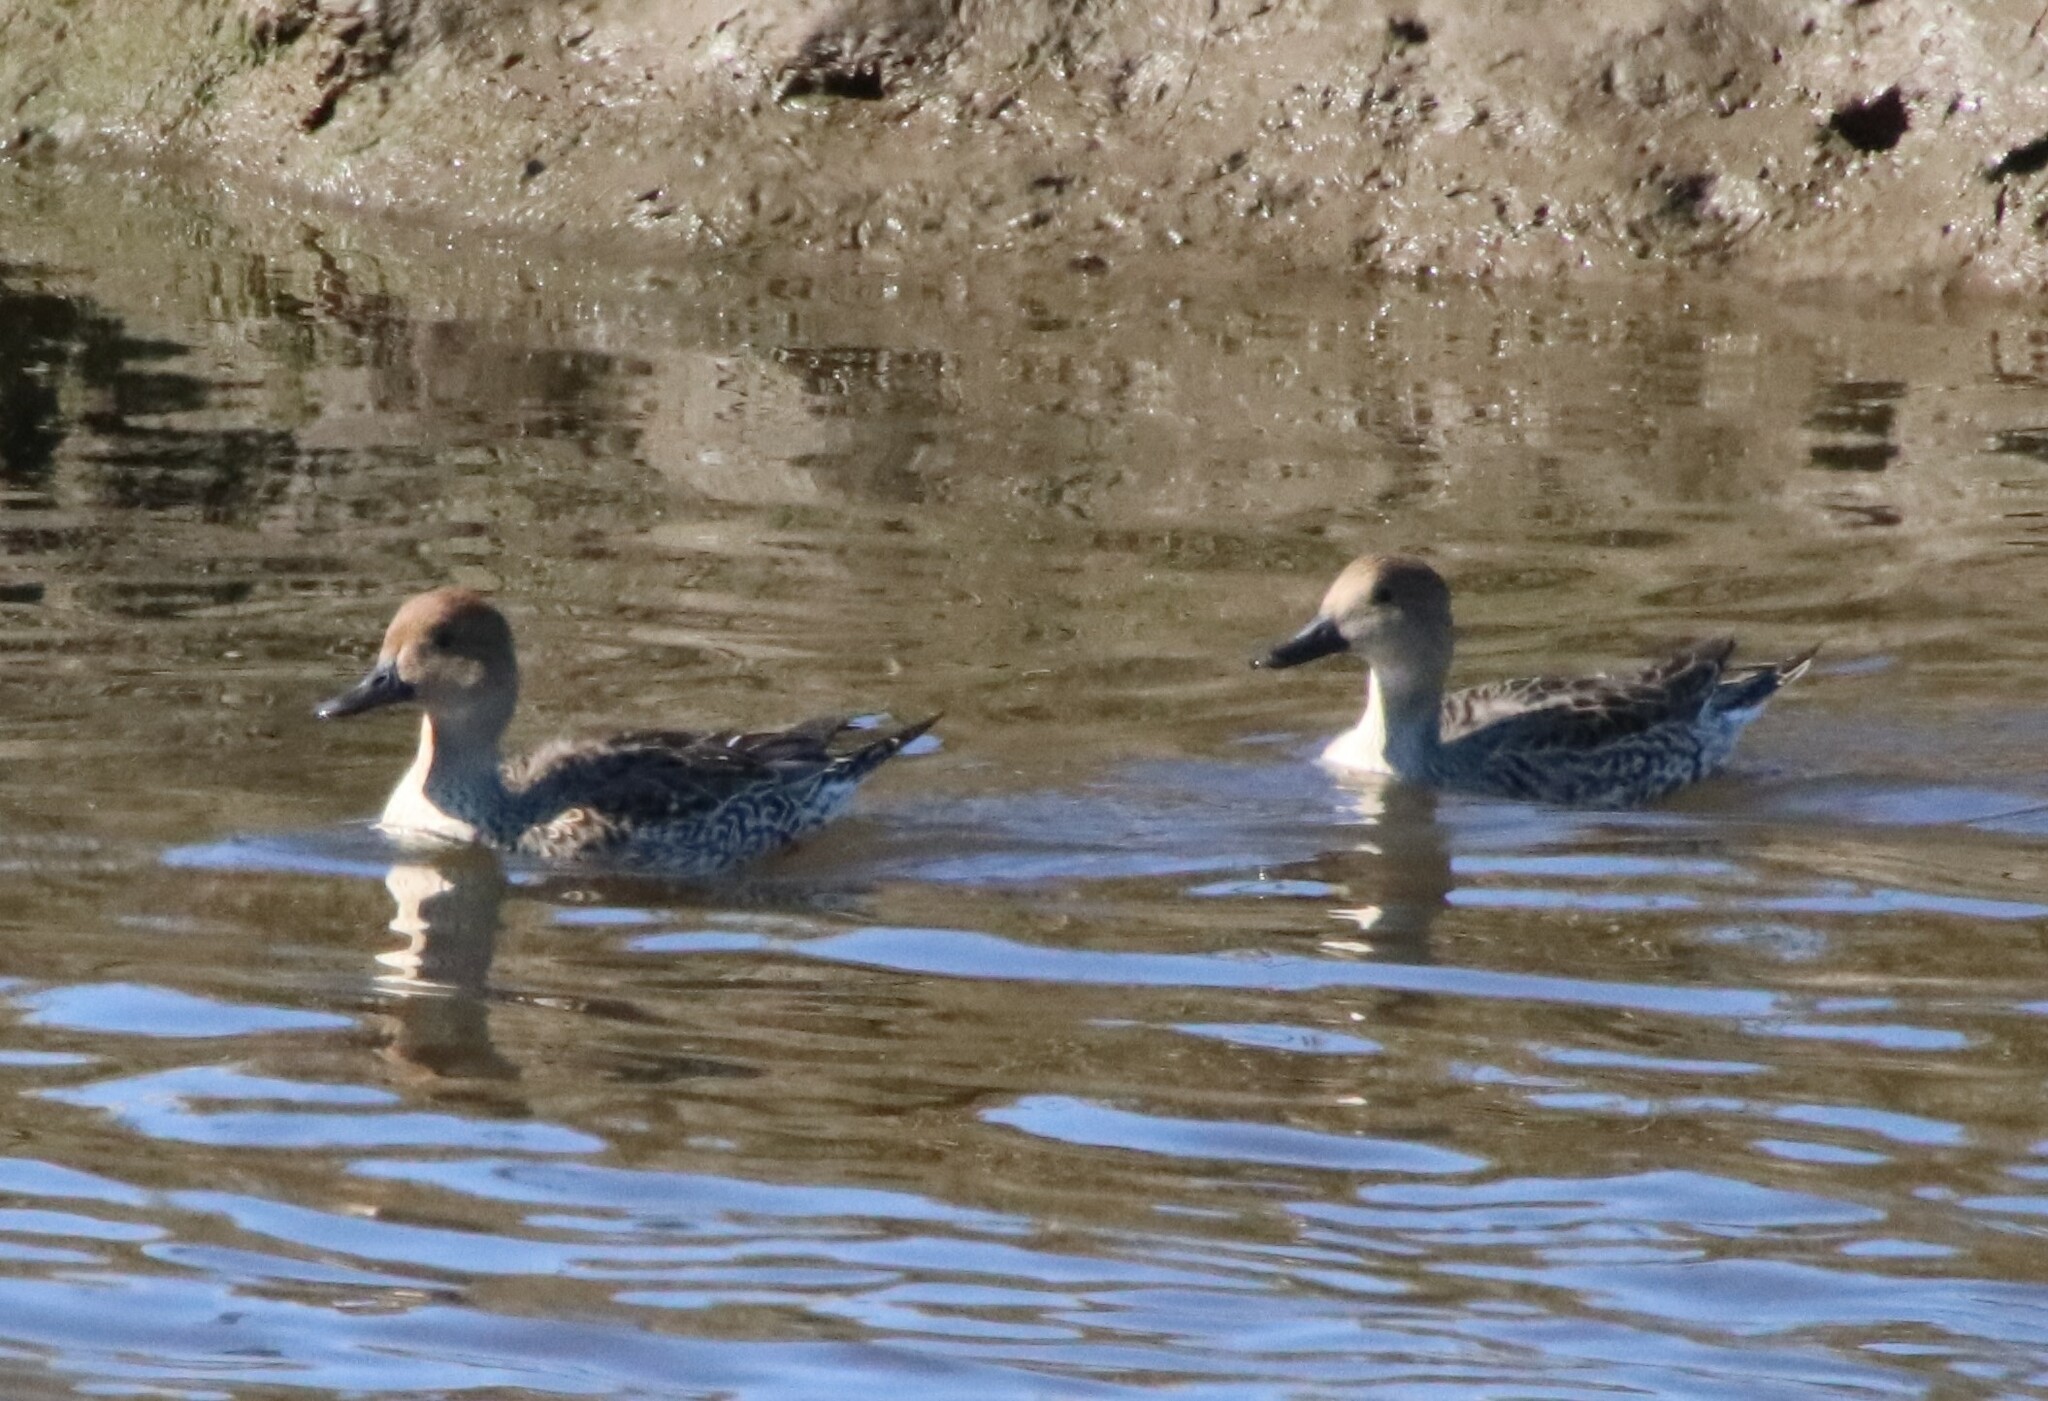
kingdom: Animalia
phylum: Chordata
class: Aves
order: Anseriformes
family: Anatidae
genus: Anas
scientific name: Anas acuta
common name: Northern pintail
